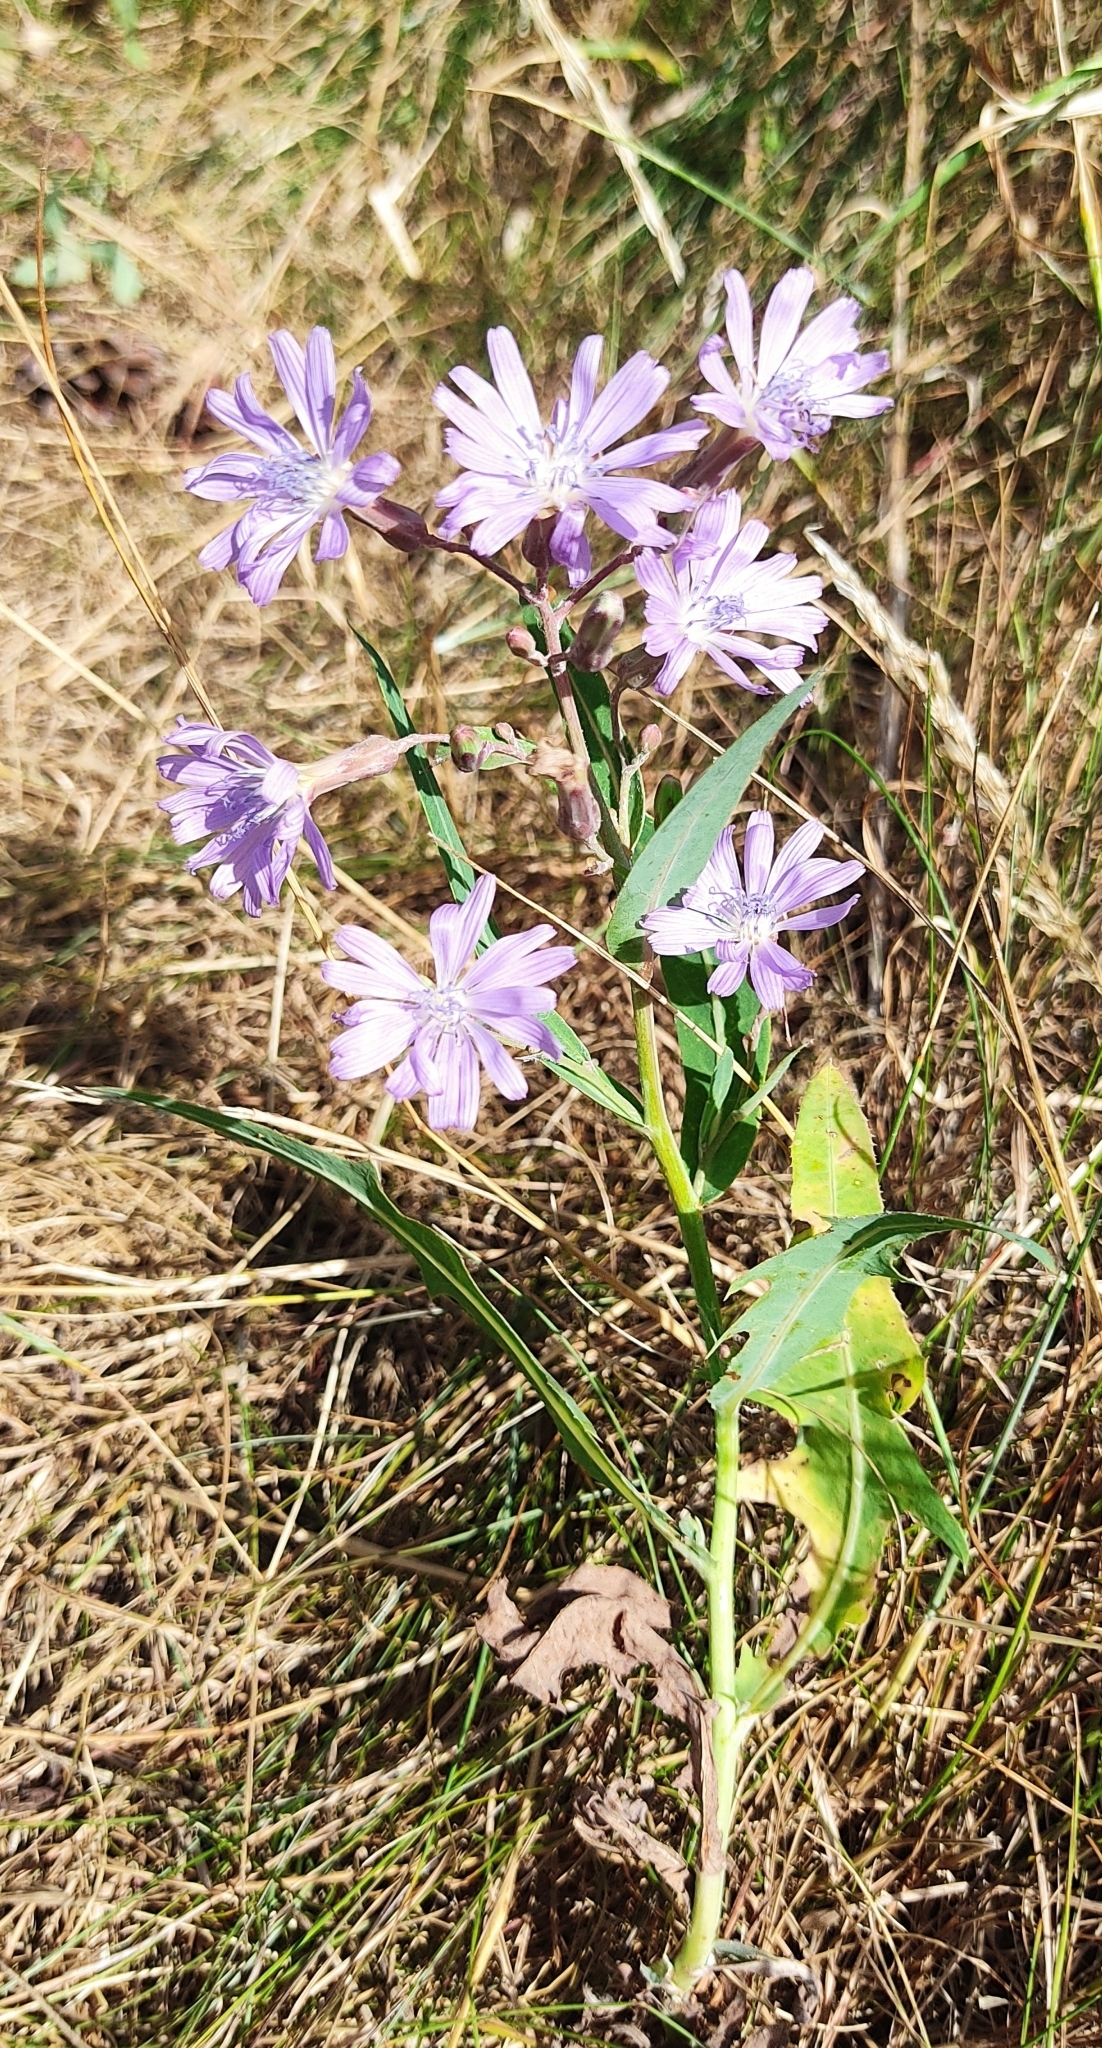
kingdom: Plantae
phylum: Tracheophyta
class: Magnoliopsida
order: Asterales
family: Asteraceae
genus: Lactuca
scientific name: Lactuca tatarica
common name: Blue lettuce
